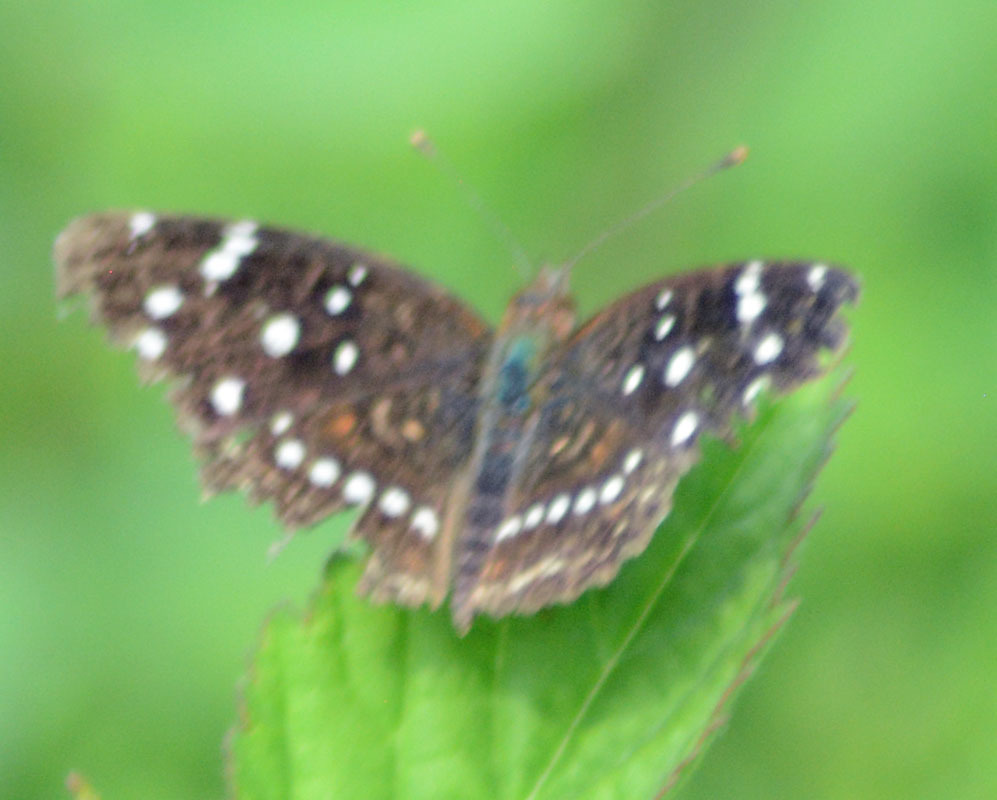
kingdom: Animalia
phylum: Arthropoda
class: Insecta
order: Lepidoptera
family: Nymphalidae
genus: Anthanassa
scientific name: Anthanassa texana
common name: Texan crescent
